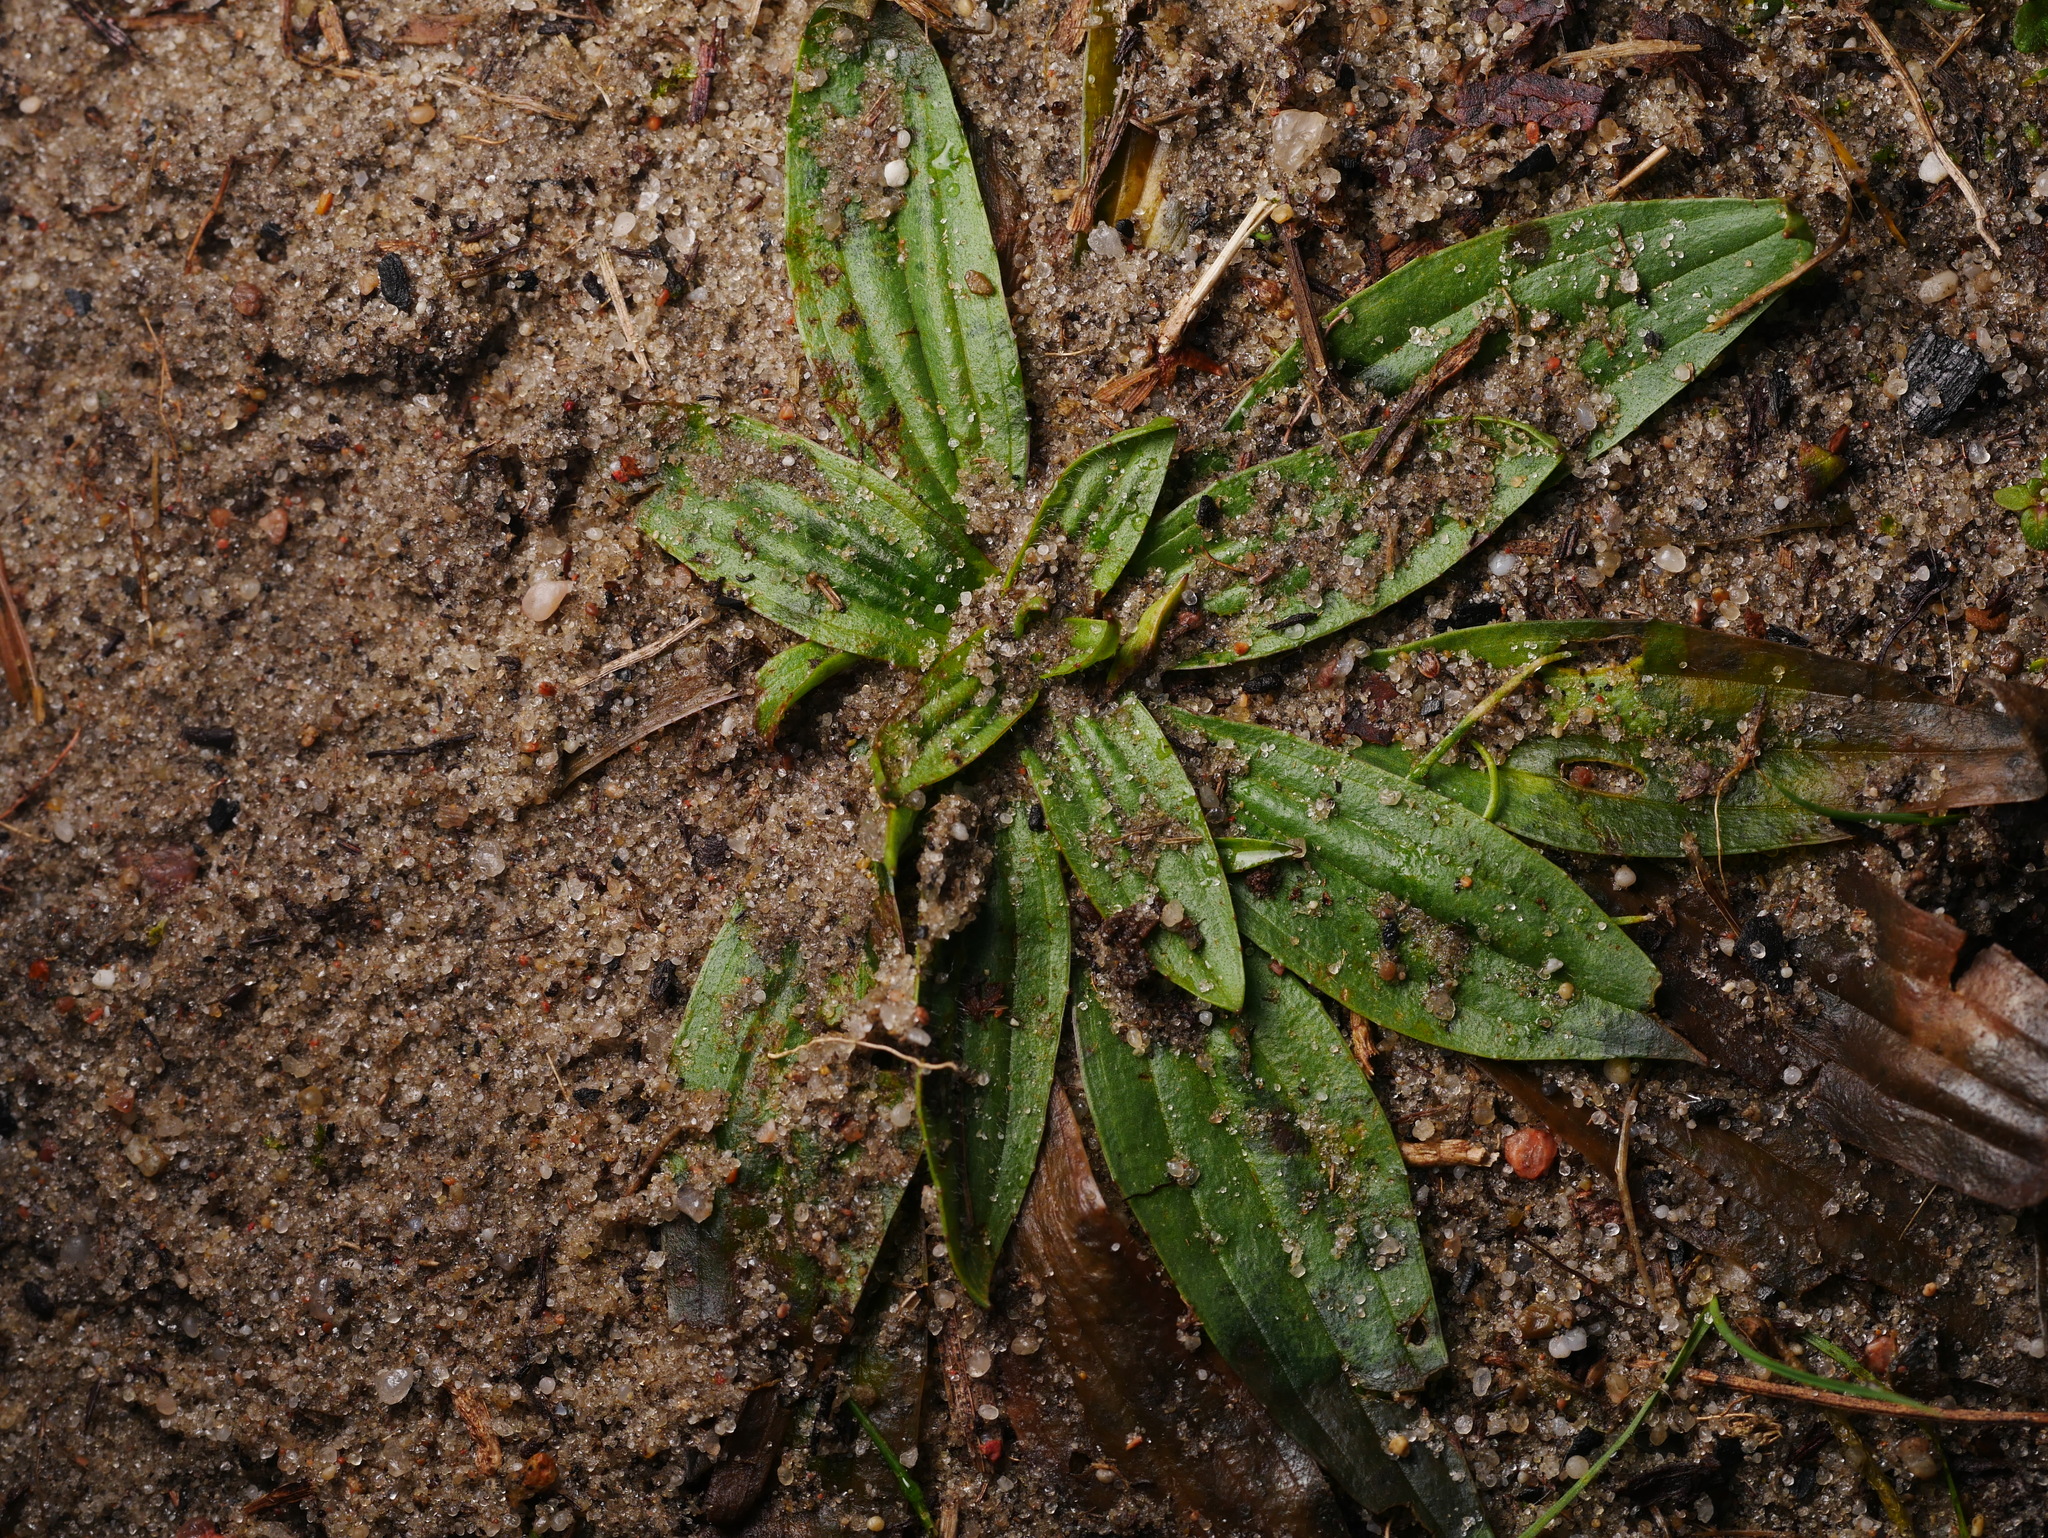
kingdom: Plantae
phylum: Tracheophyta
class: Magnoliopsida
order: Lamiales
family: Plantaginaceae
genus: Plantago
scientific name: Plantago lanceolata
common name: Ribwort plantain
